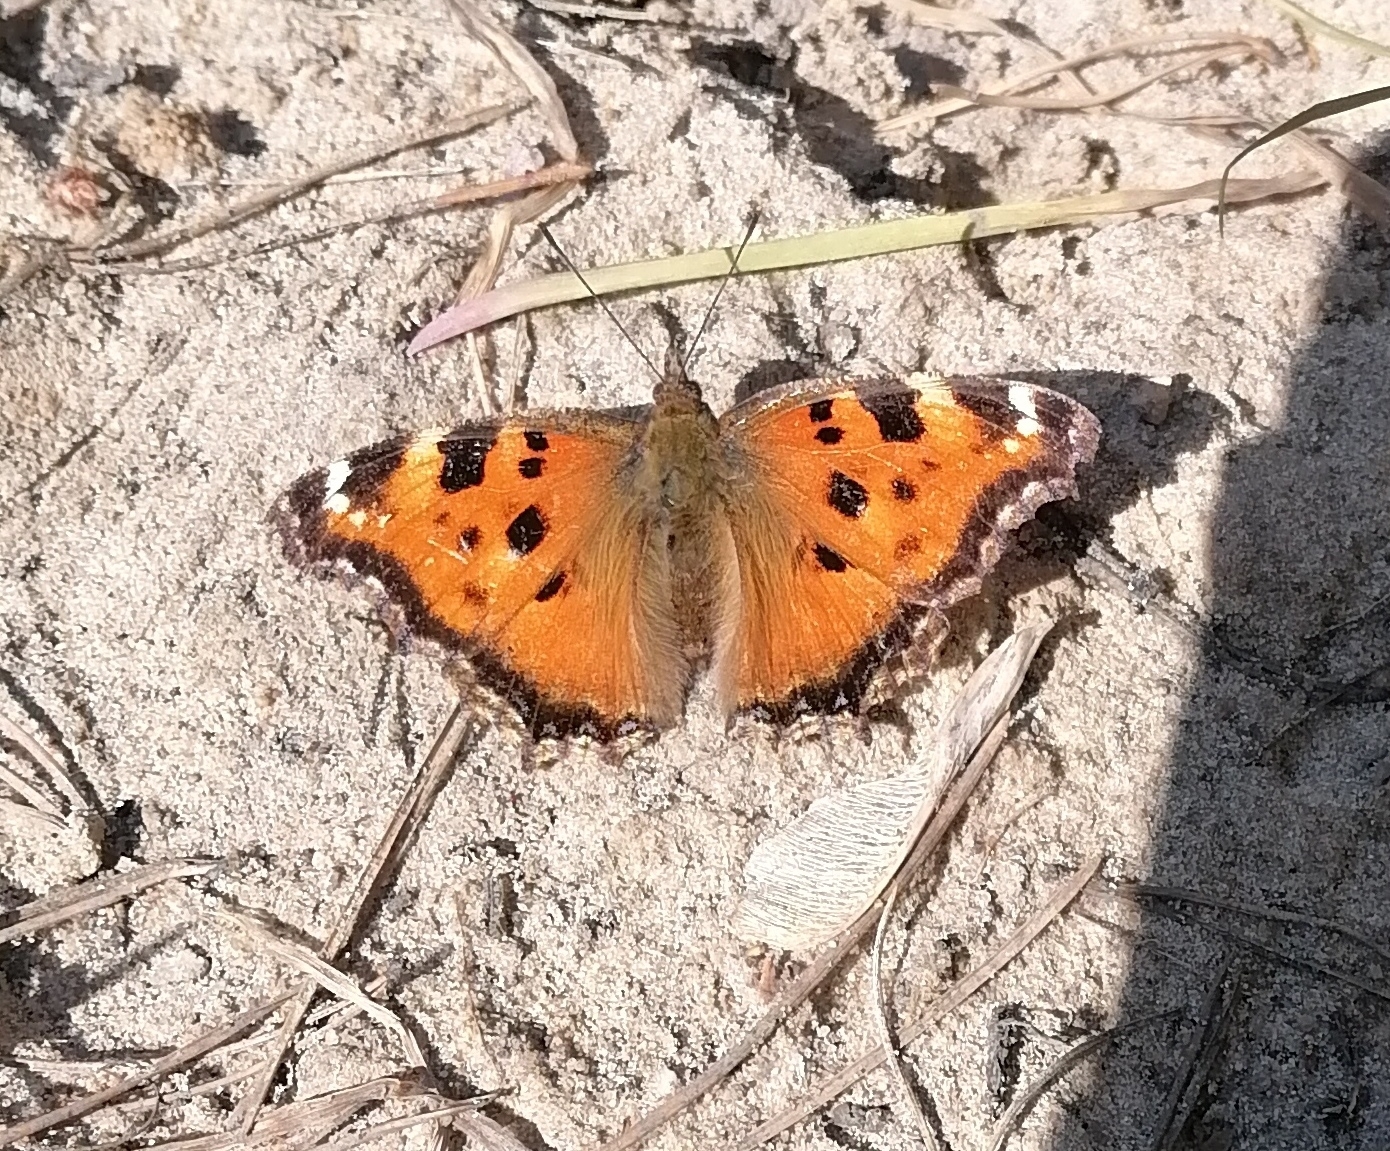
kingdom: Animalia
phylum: Arthropoda
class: Insecta
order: Lepidoptera
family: Nymphalidae
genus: Nymphalis
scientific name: Nymphalis xanthomelas
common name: Scarce tortoiseshell
